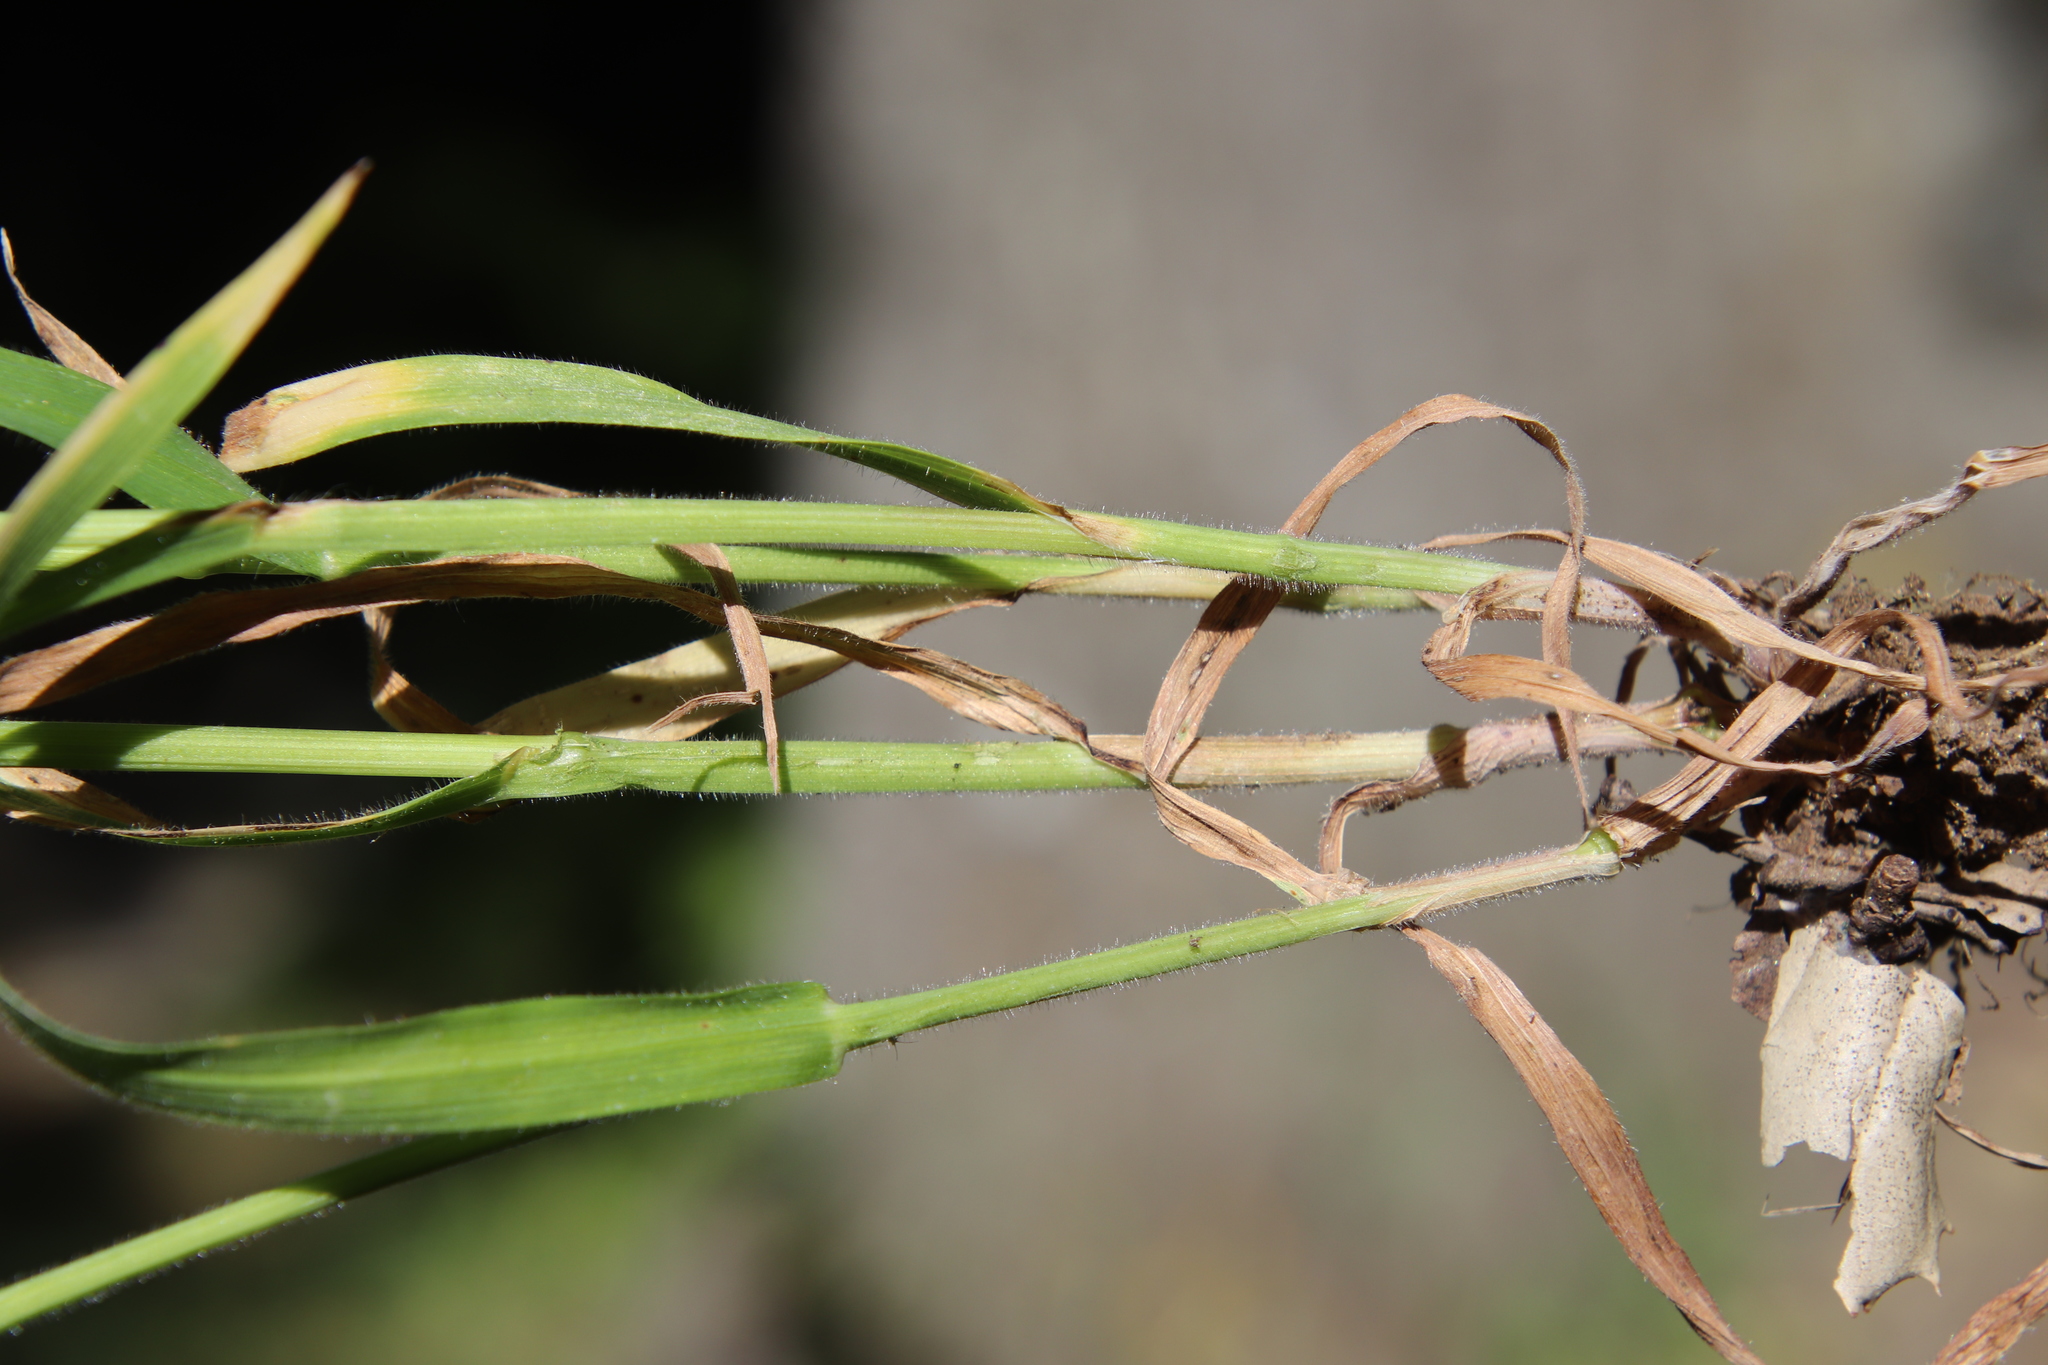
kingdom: Plantae
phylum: Tracheophyta
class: Liliopsida
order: Poales
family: Poaceae
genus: Bromus
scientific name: Bromus diandrus
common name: Ripgut brome
